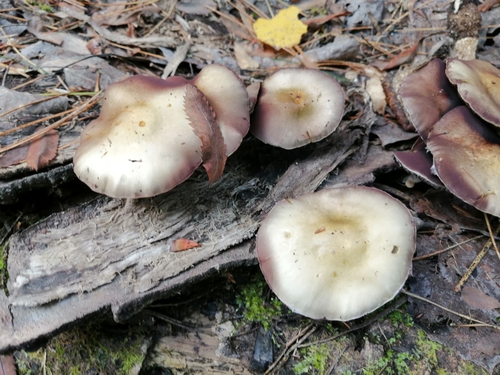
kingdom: Fungi
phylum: Basidiomycota
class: Agaricomycetes
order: Agaricales
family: Strophariaceae
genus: Stropharia
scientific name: Stropharia hornemannii
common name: Conifer roundhead
